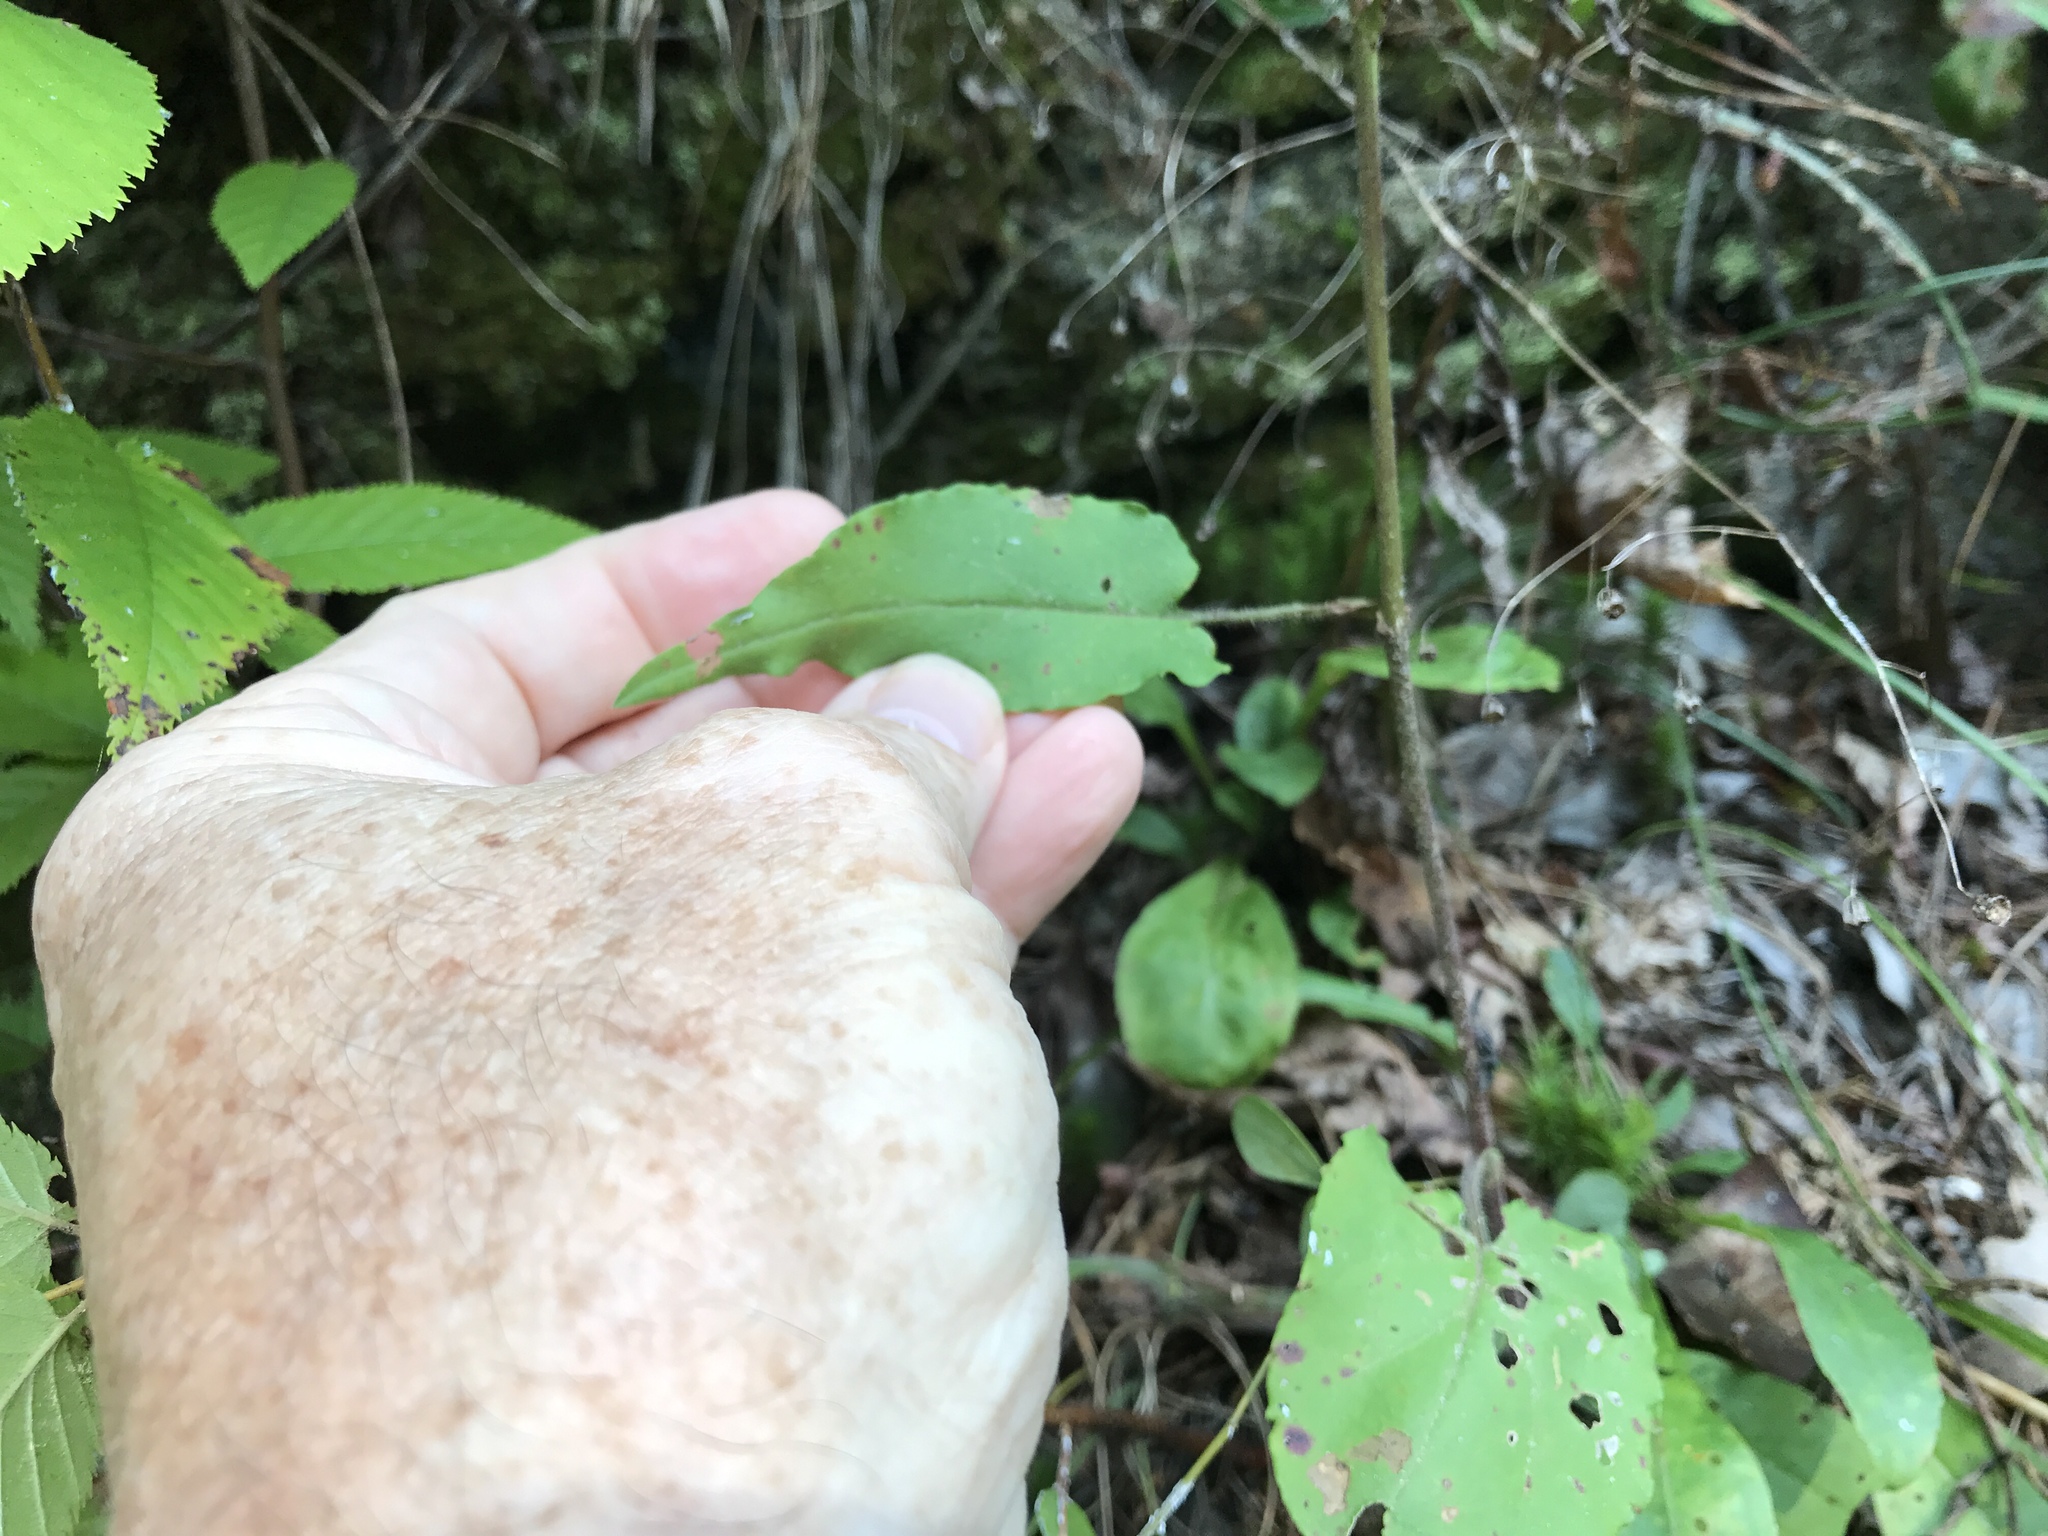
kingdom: Plantae
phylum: Tracheophyta
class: Magnoliopsida
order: Asterales
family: Asteraceae
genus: Symphyotrichum
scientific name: Symphyotrichum undulatum
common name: Clasping heart-leaf aster
